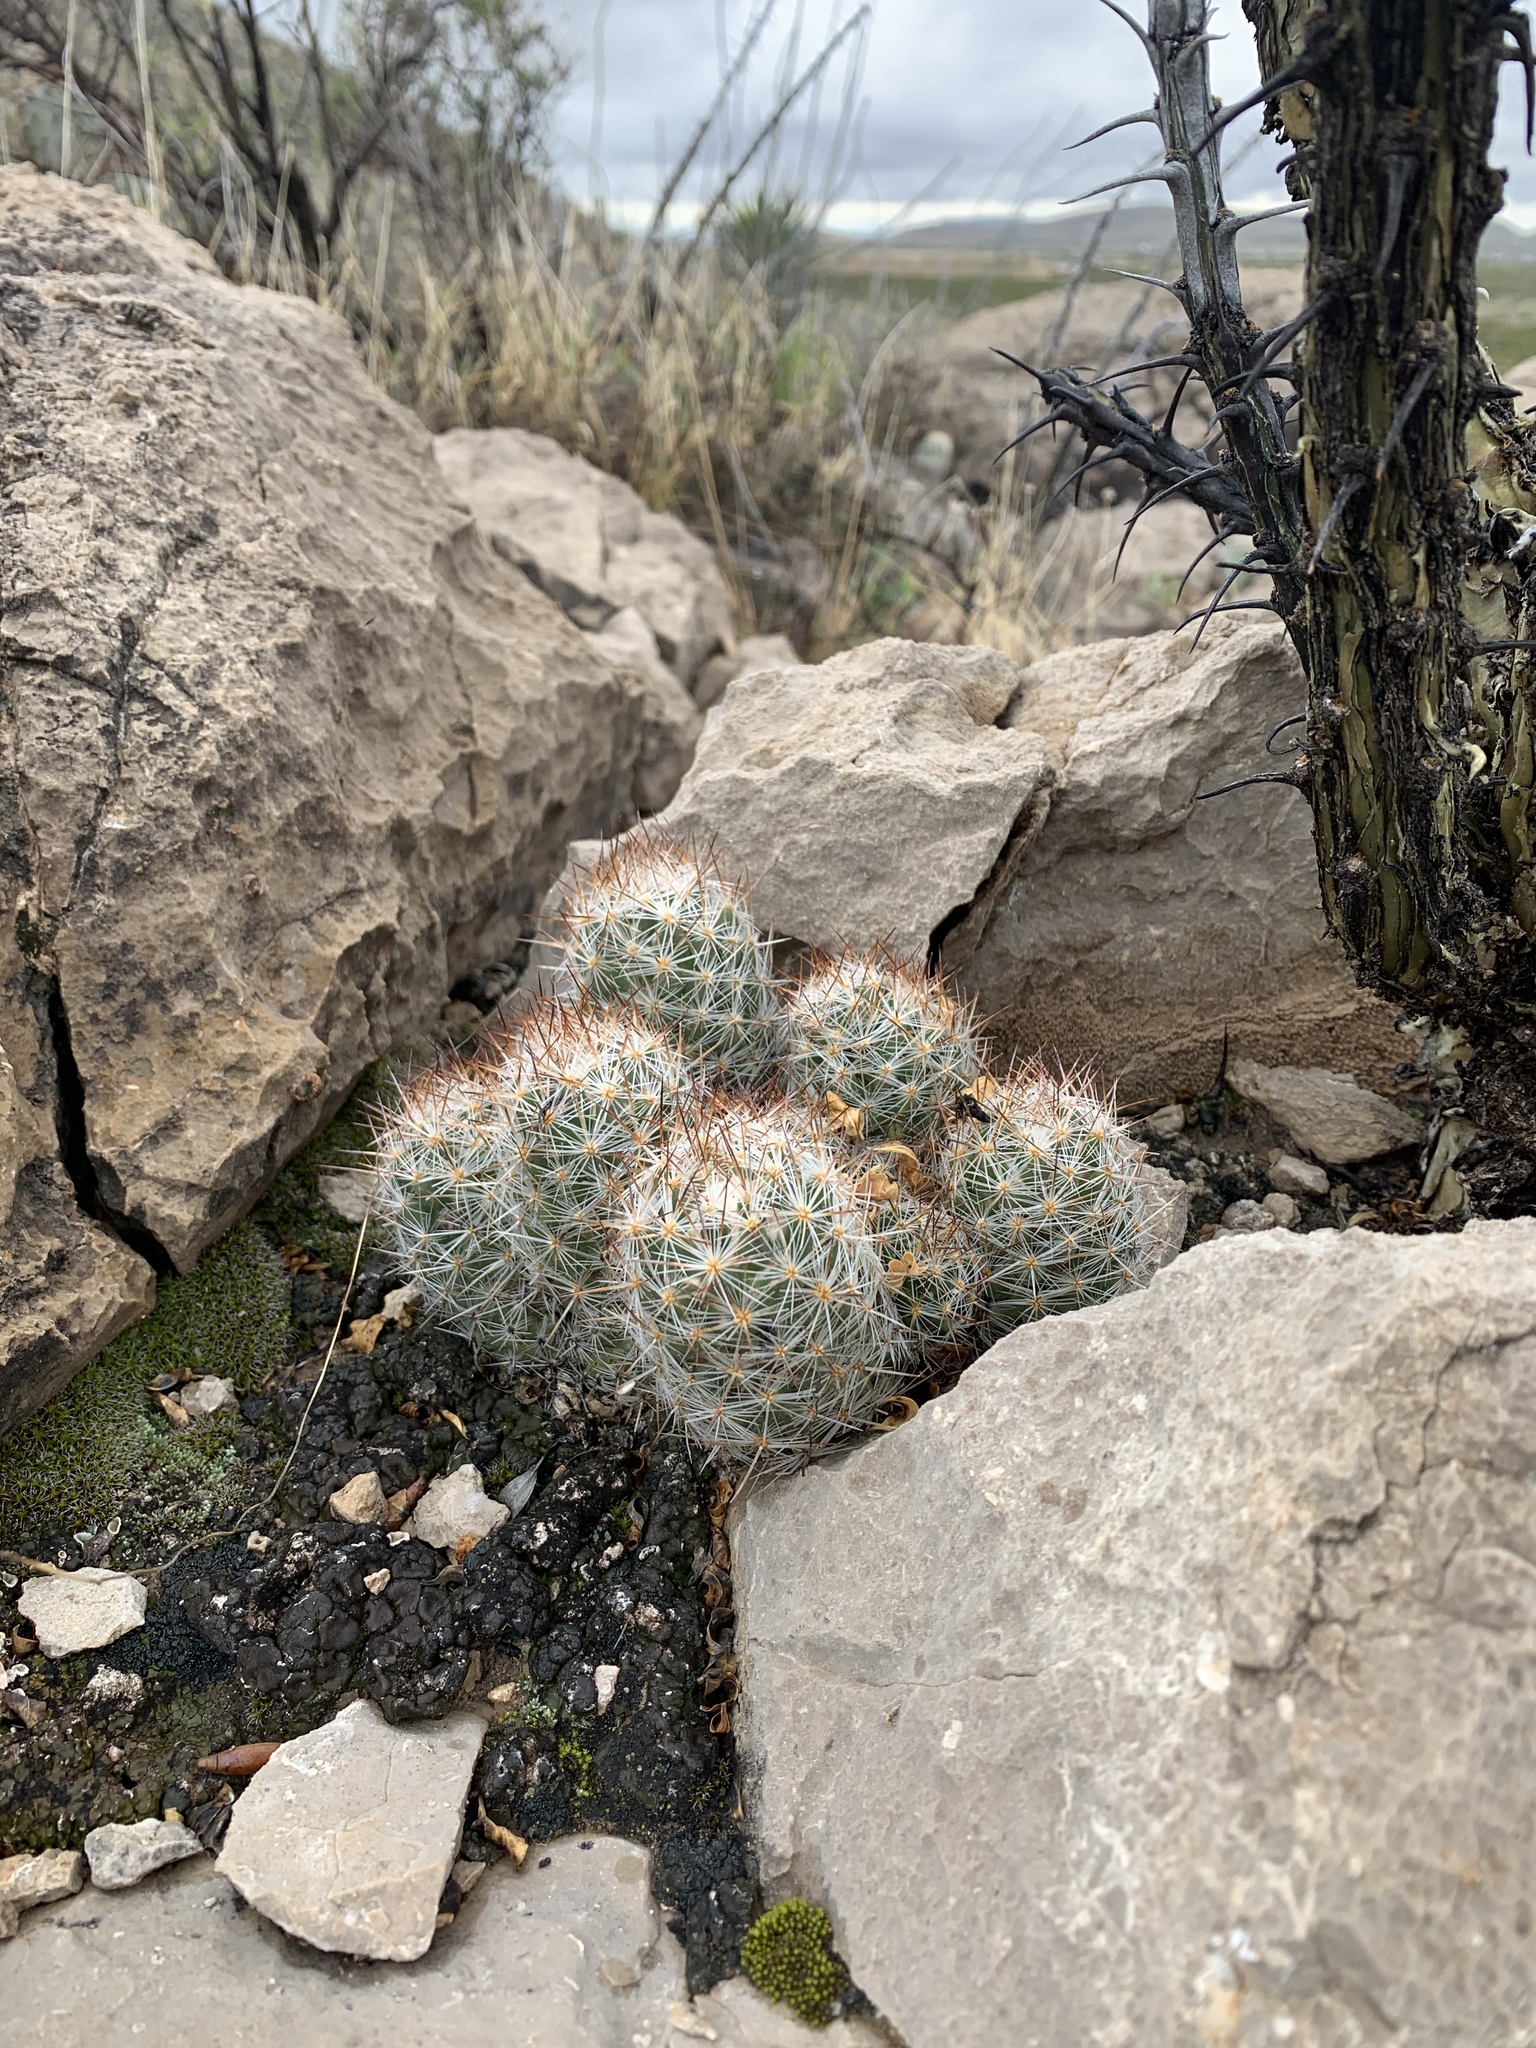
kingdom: Plantae
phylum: Tracheophyta
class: Magnoliopsida
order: Caryophyllales
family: Cactaceae
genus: Pelecyphora
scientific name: Pelecyphora tuberculosa
